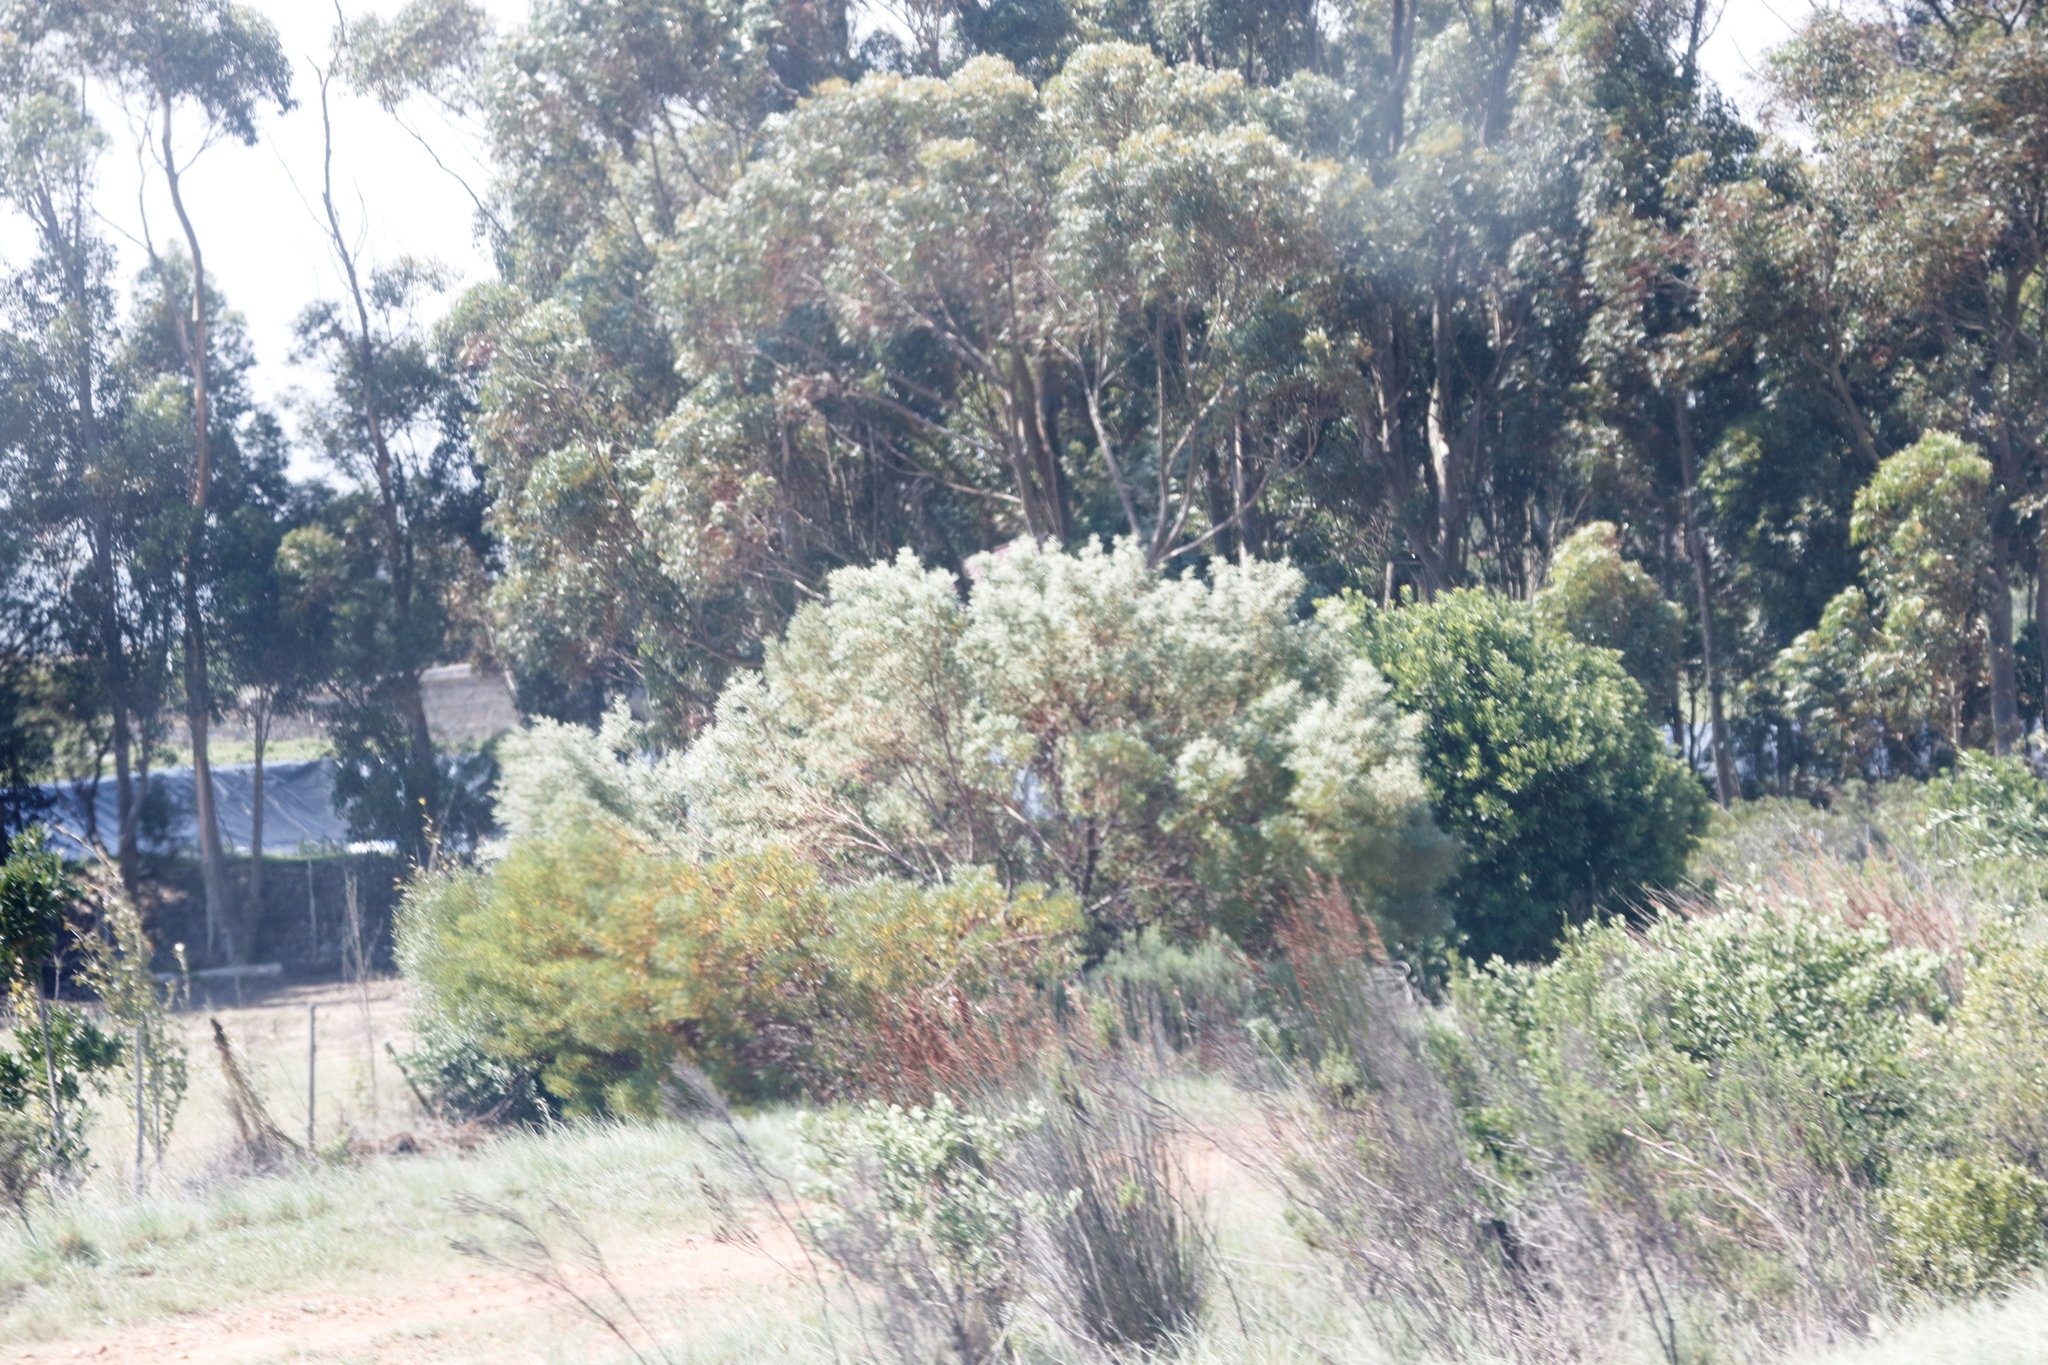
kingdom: Plantae
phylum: Tracheophyta
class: Magnoliopsida
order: Proteales
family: Proteaceae
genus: Leucadendron
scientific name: Leucadendron galpinii
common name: Hairless conebush
